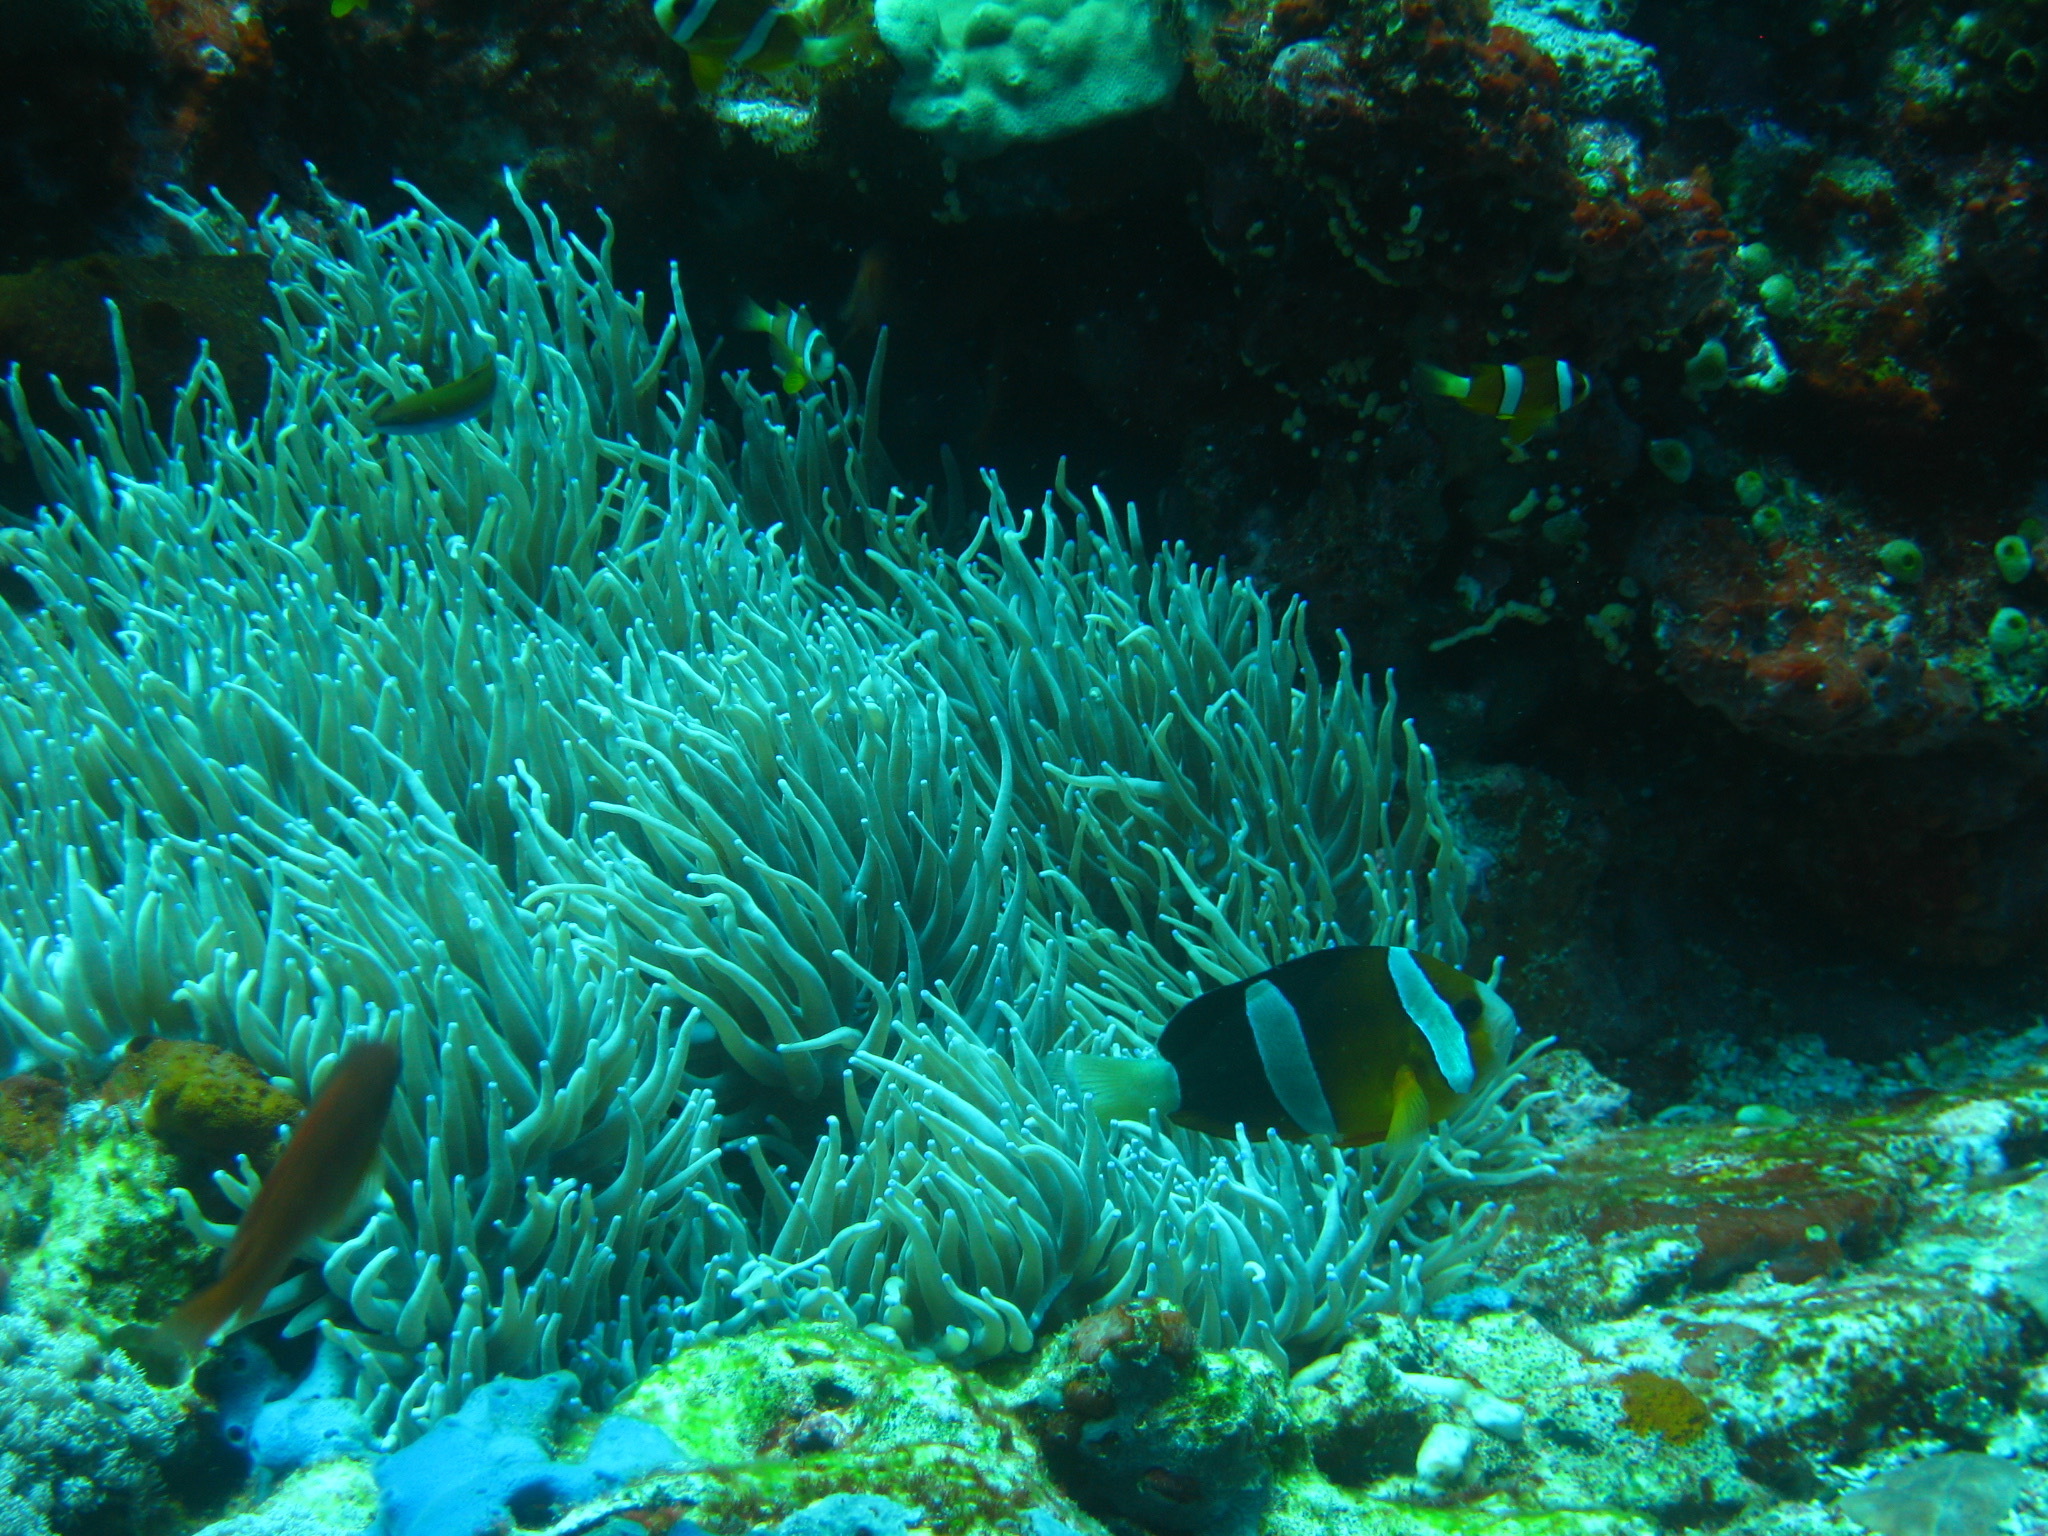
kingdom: Animalia
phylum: Chordata
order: Perciformes
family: Pomacentridae
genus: Amphiprion
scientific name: Amphiprion clarkii
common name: Clark's anemonefish
